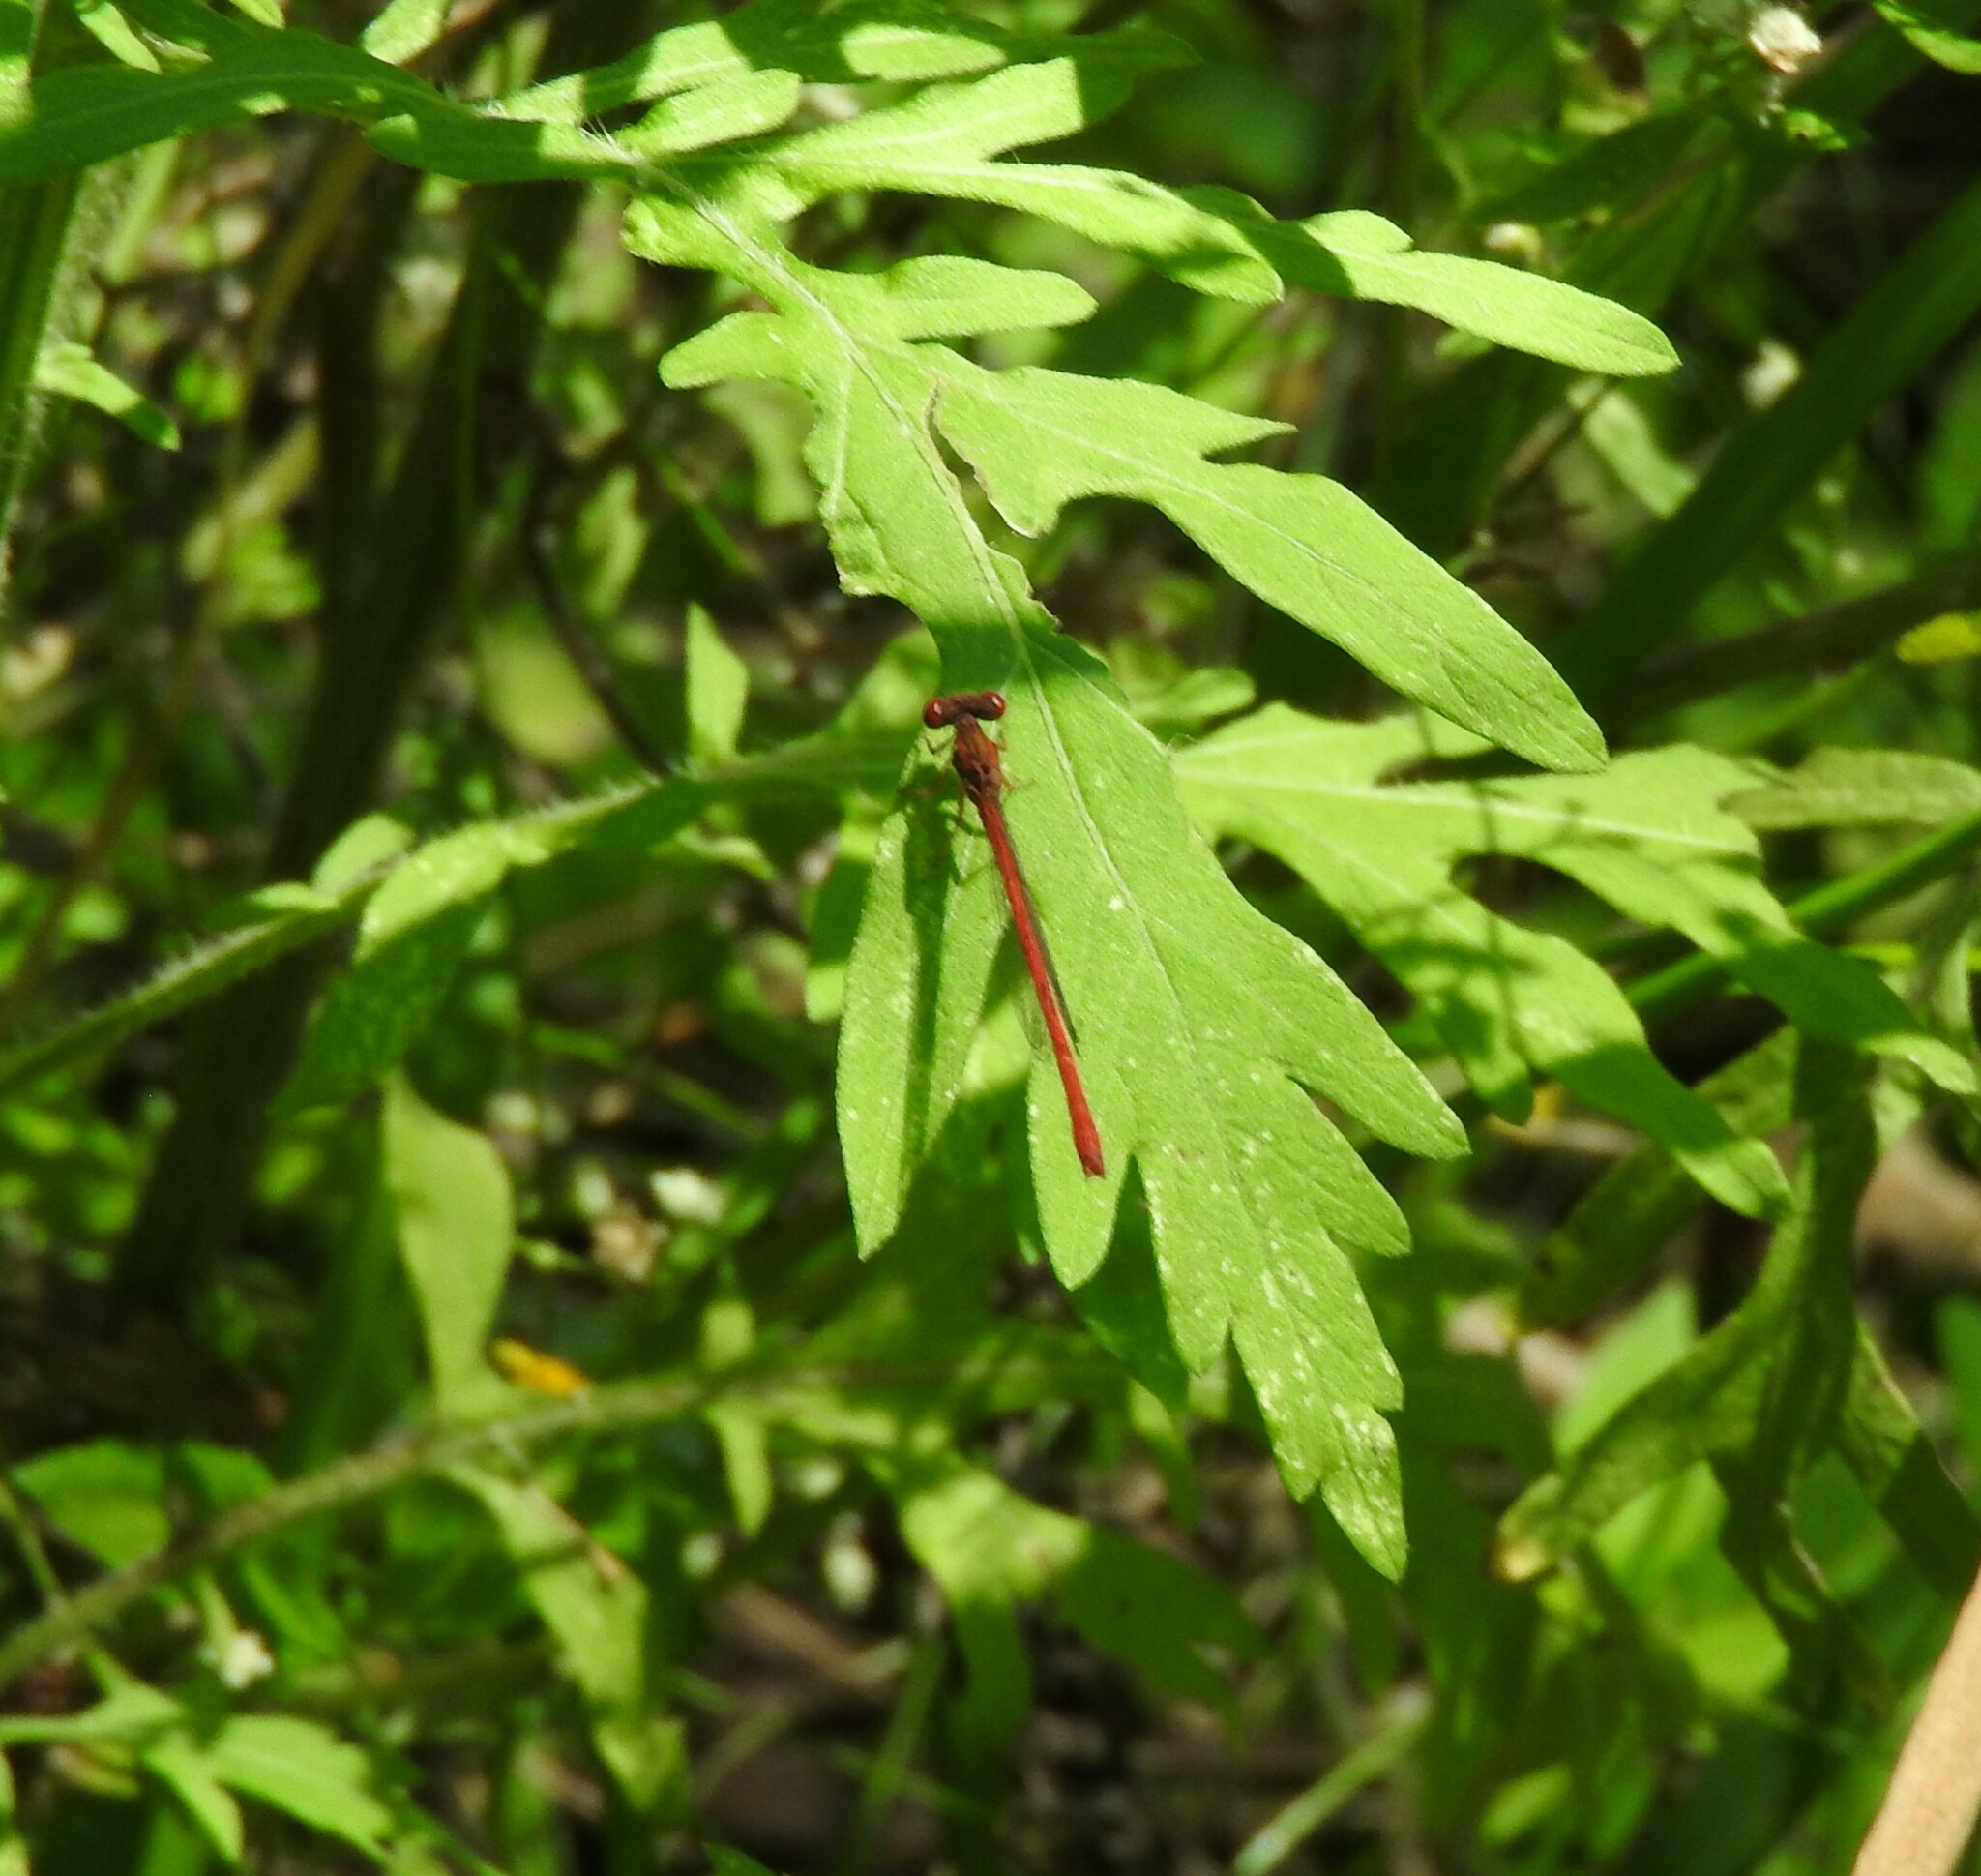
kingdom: Animalia
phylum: Arthropoda
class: Insecta
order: Odonata
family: Coenagrionidae
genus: Telebasis
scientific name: Telebasis salva
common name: Desert firetail
